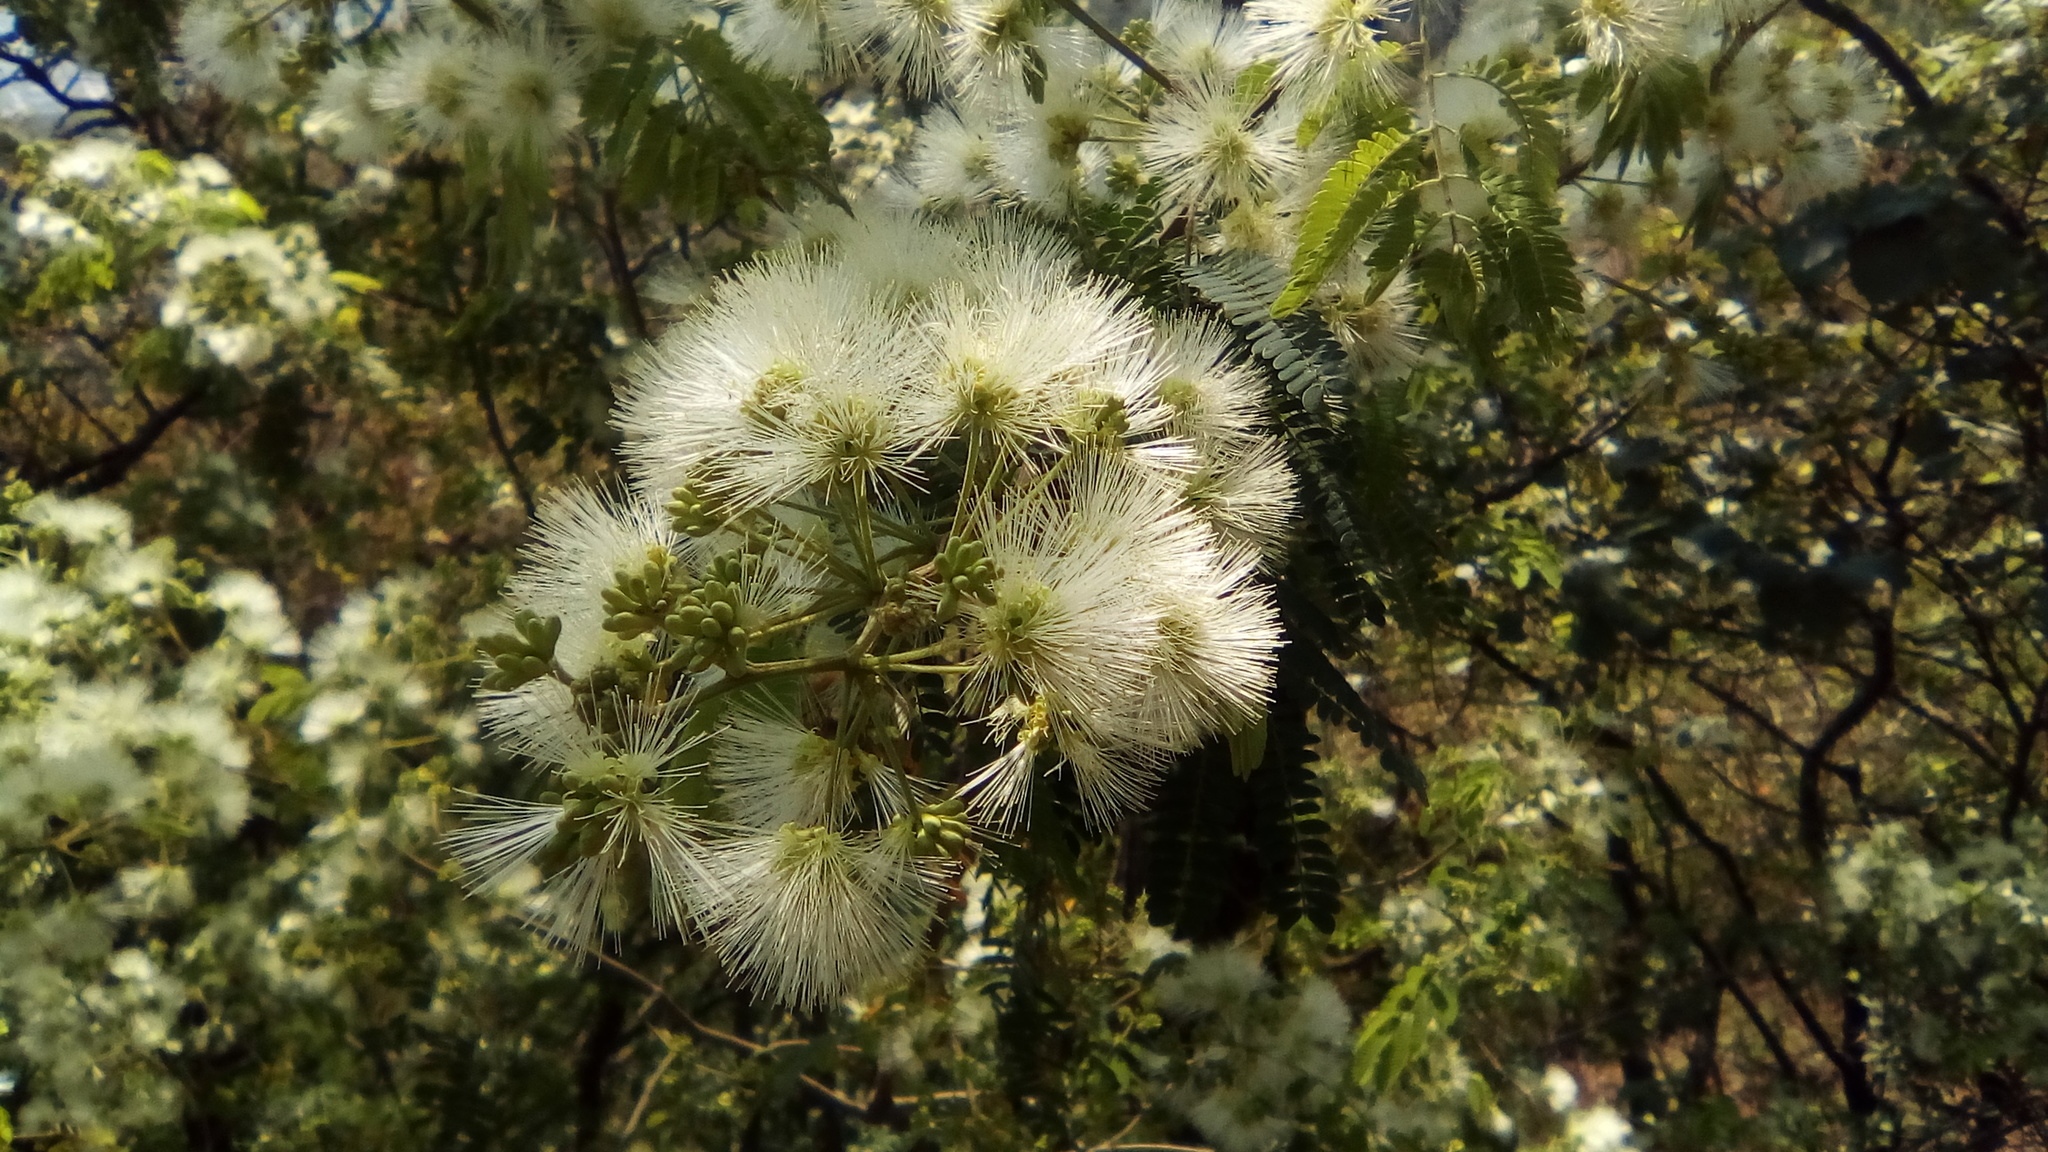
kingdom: Plantae
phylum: Tracheophyta
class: Magnoliopsida
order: Fabales
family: Fabaceae
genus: Havardia
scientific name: Havardia pallens
